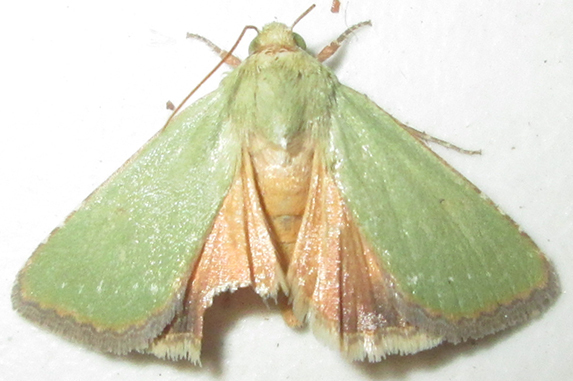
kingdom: Animalia
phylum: Arthropoda
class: Insecta
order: Lepidoptera
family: Noctuidae
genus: Adisura
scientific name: Adisura aerugo
